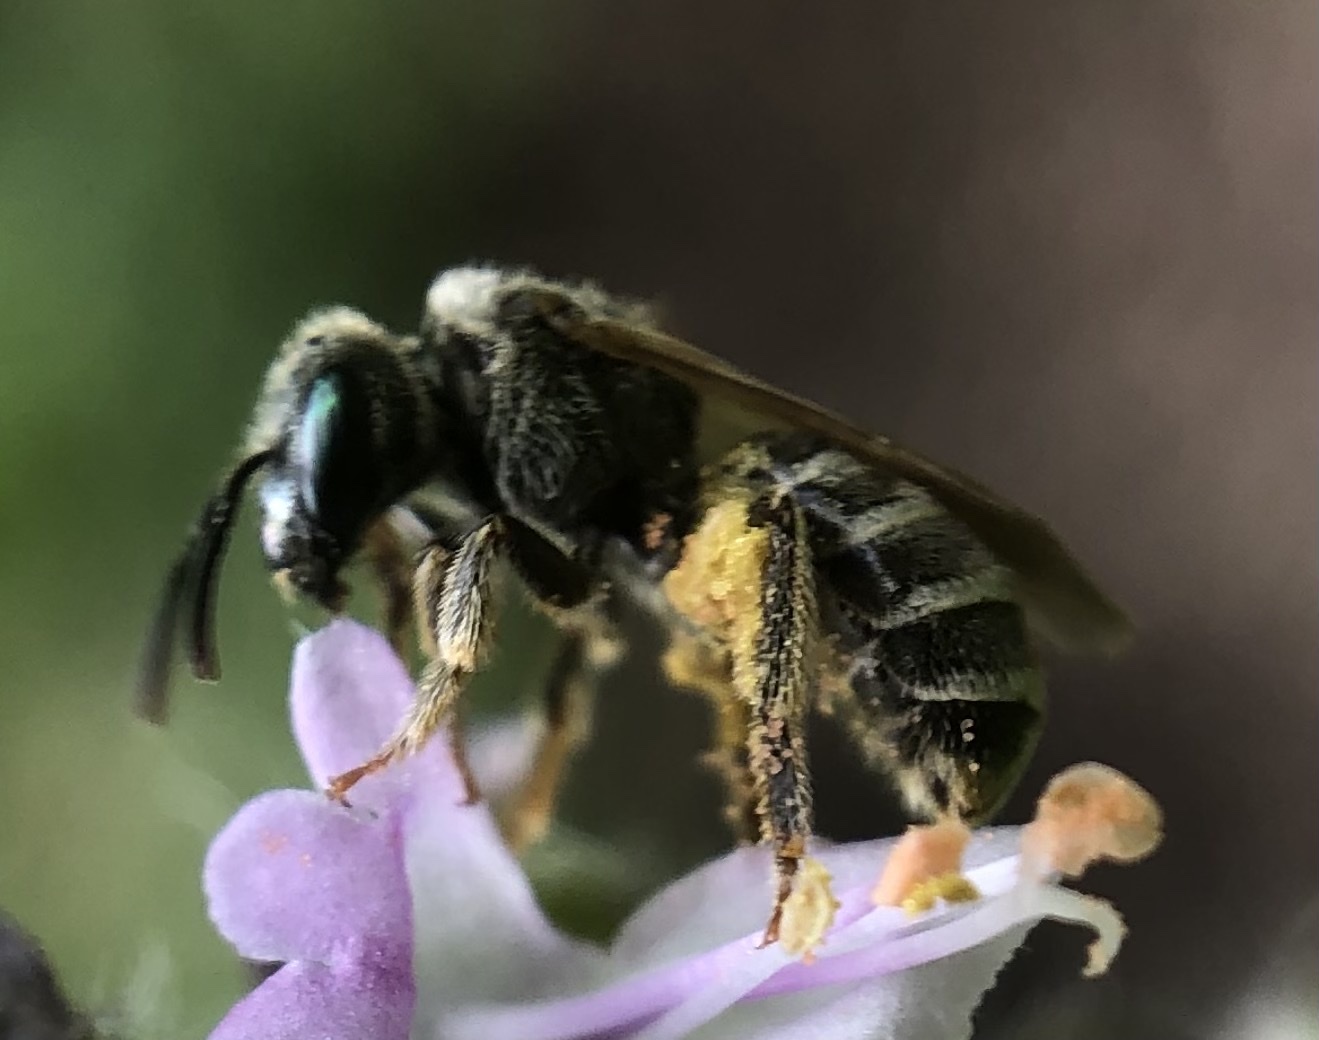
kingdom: Animalia
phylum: Arthropoda
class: Insecta
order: Hymenoptera
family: Halictidae
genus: Halictus
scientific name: Halictus confusus
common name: Southern bronze furrow bee
